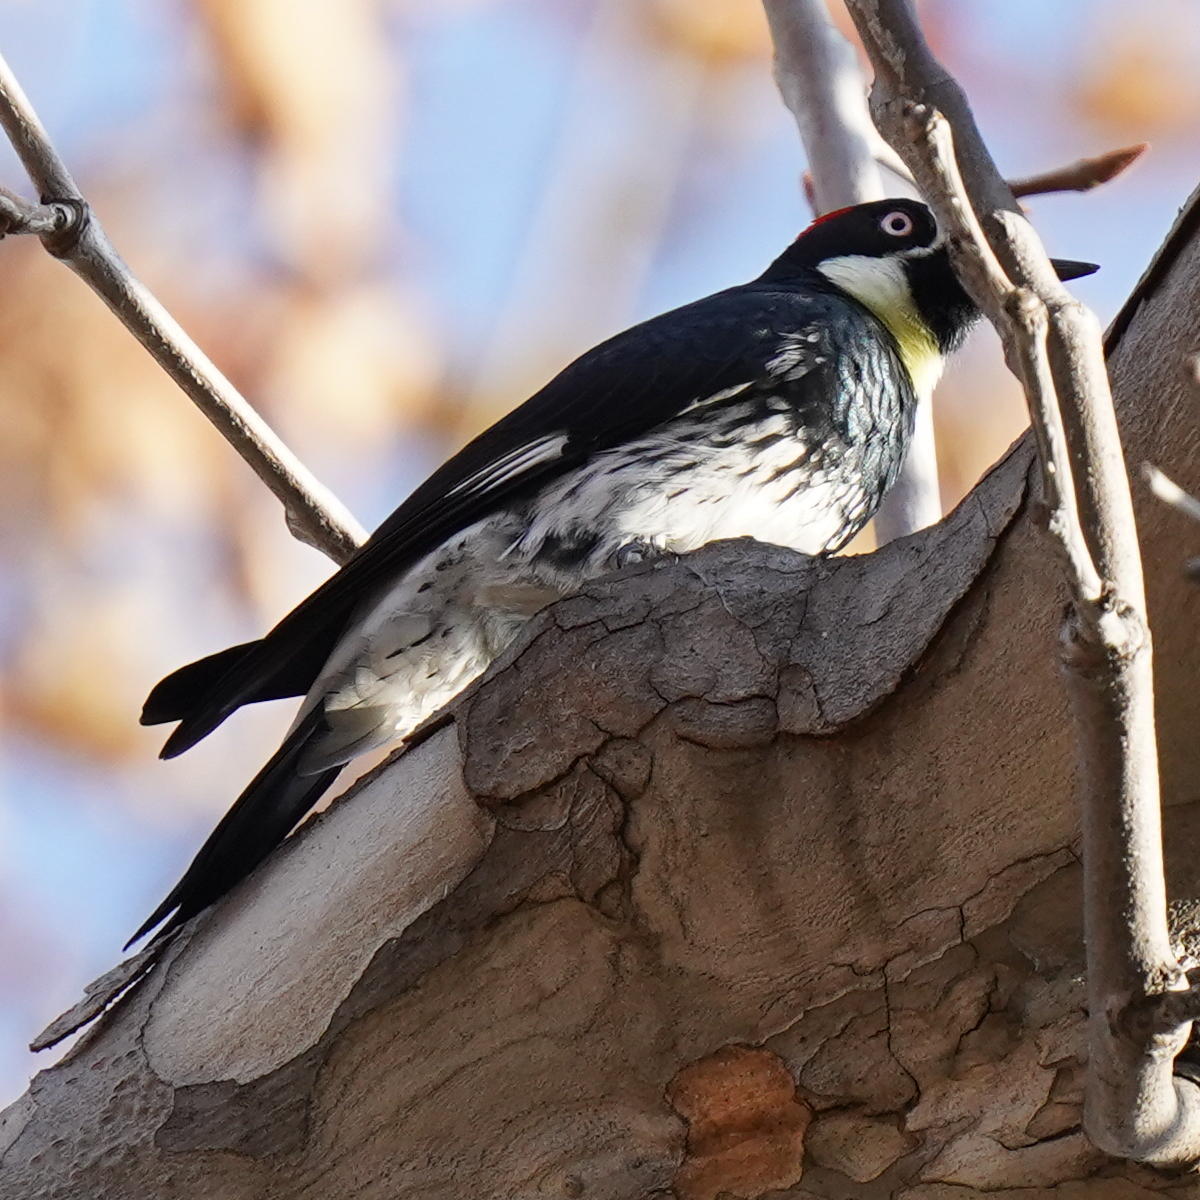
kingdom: Animalia
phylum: Chordata
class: Aves
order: Piciformes
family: Picidae
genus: Melanerpes
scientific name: Melanerpes formicivorus
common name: Acorn woodpecker
